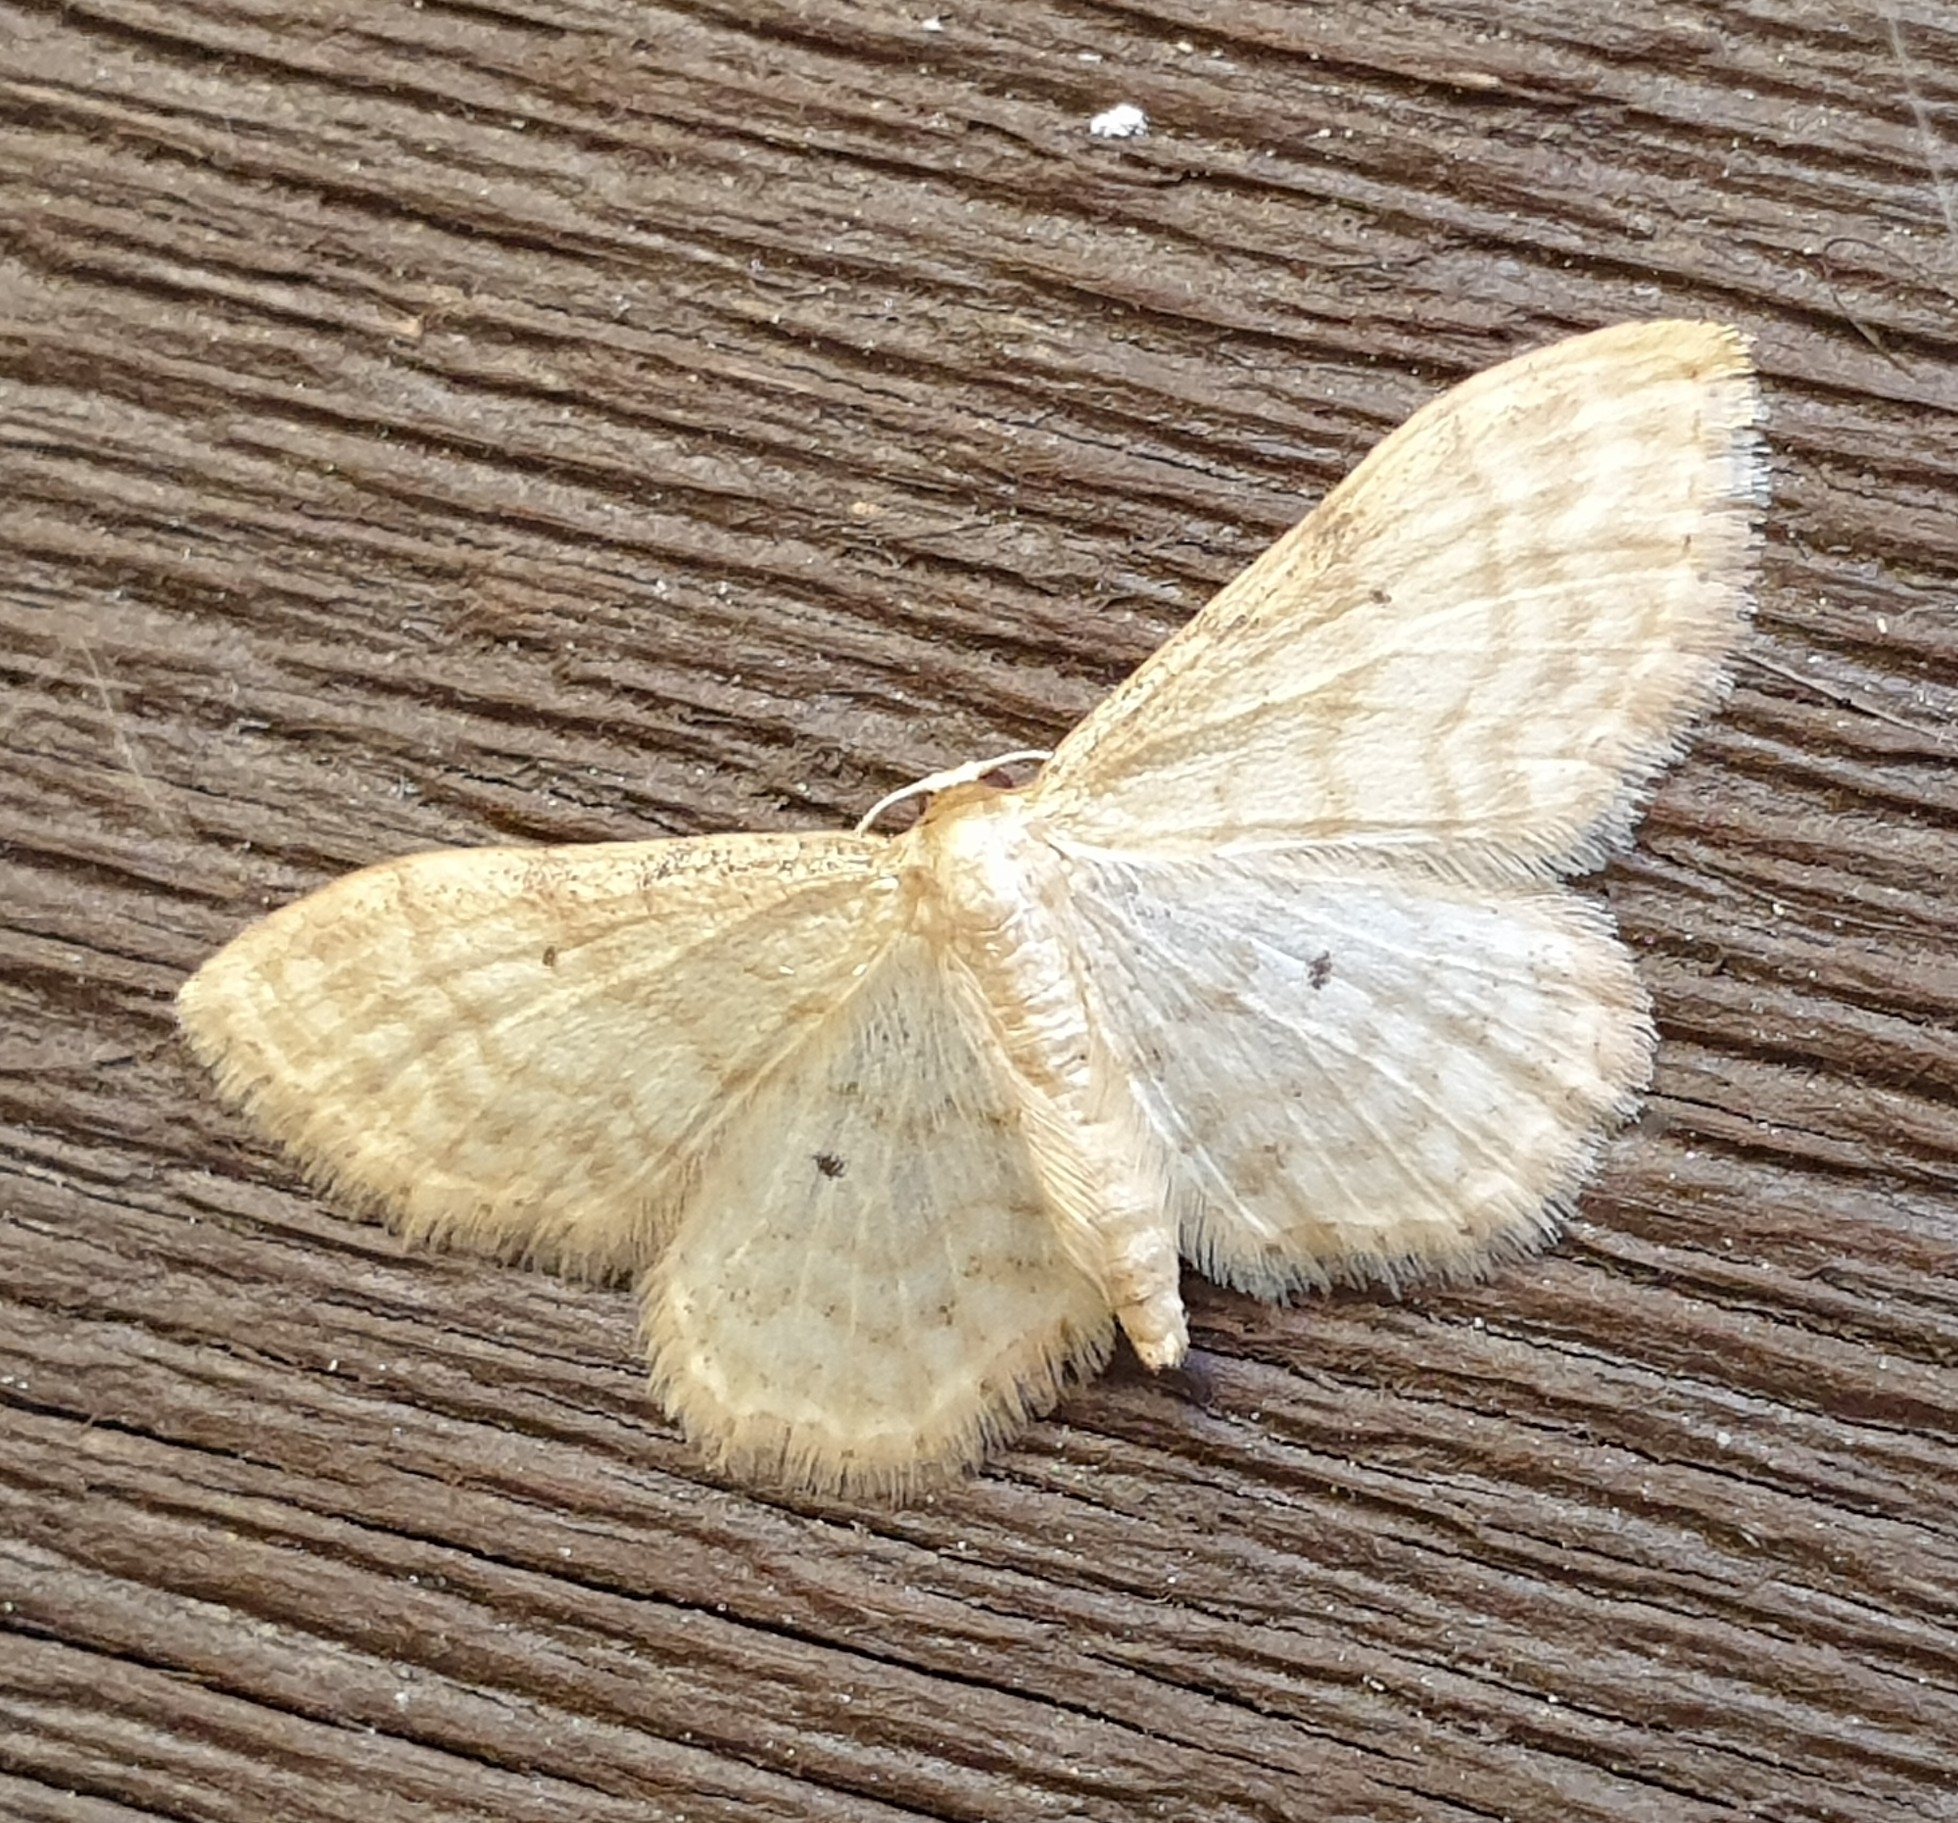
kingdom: Animalia
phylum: Arthropoda
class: Insecta
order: Lepidoptera
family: Geometridae
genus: Idaea
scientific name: Idaea fuscovenosa
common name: Dwarf cream wave
